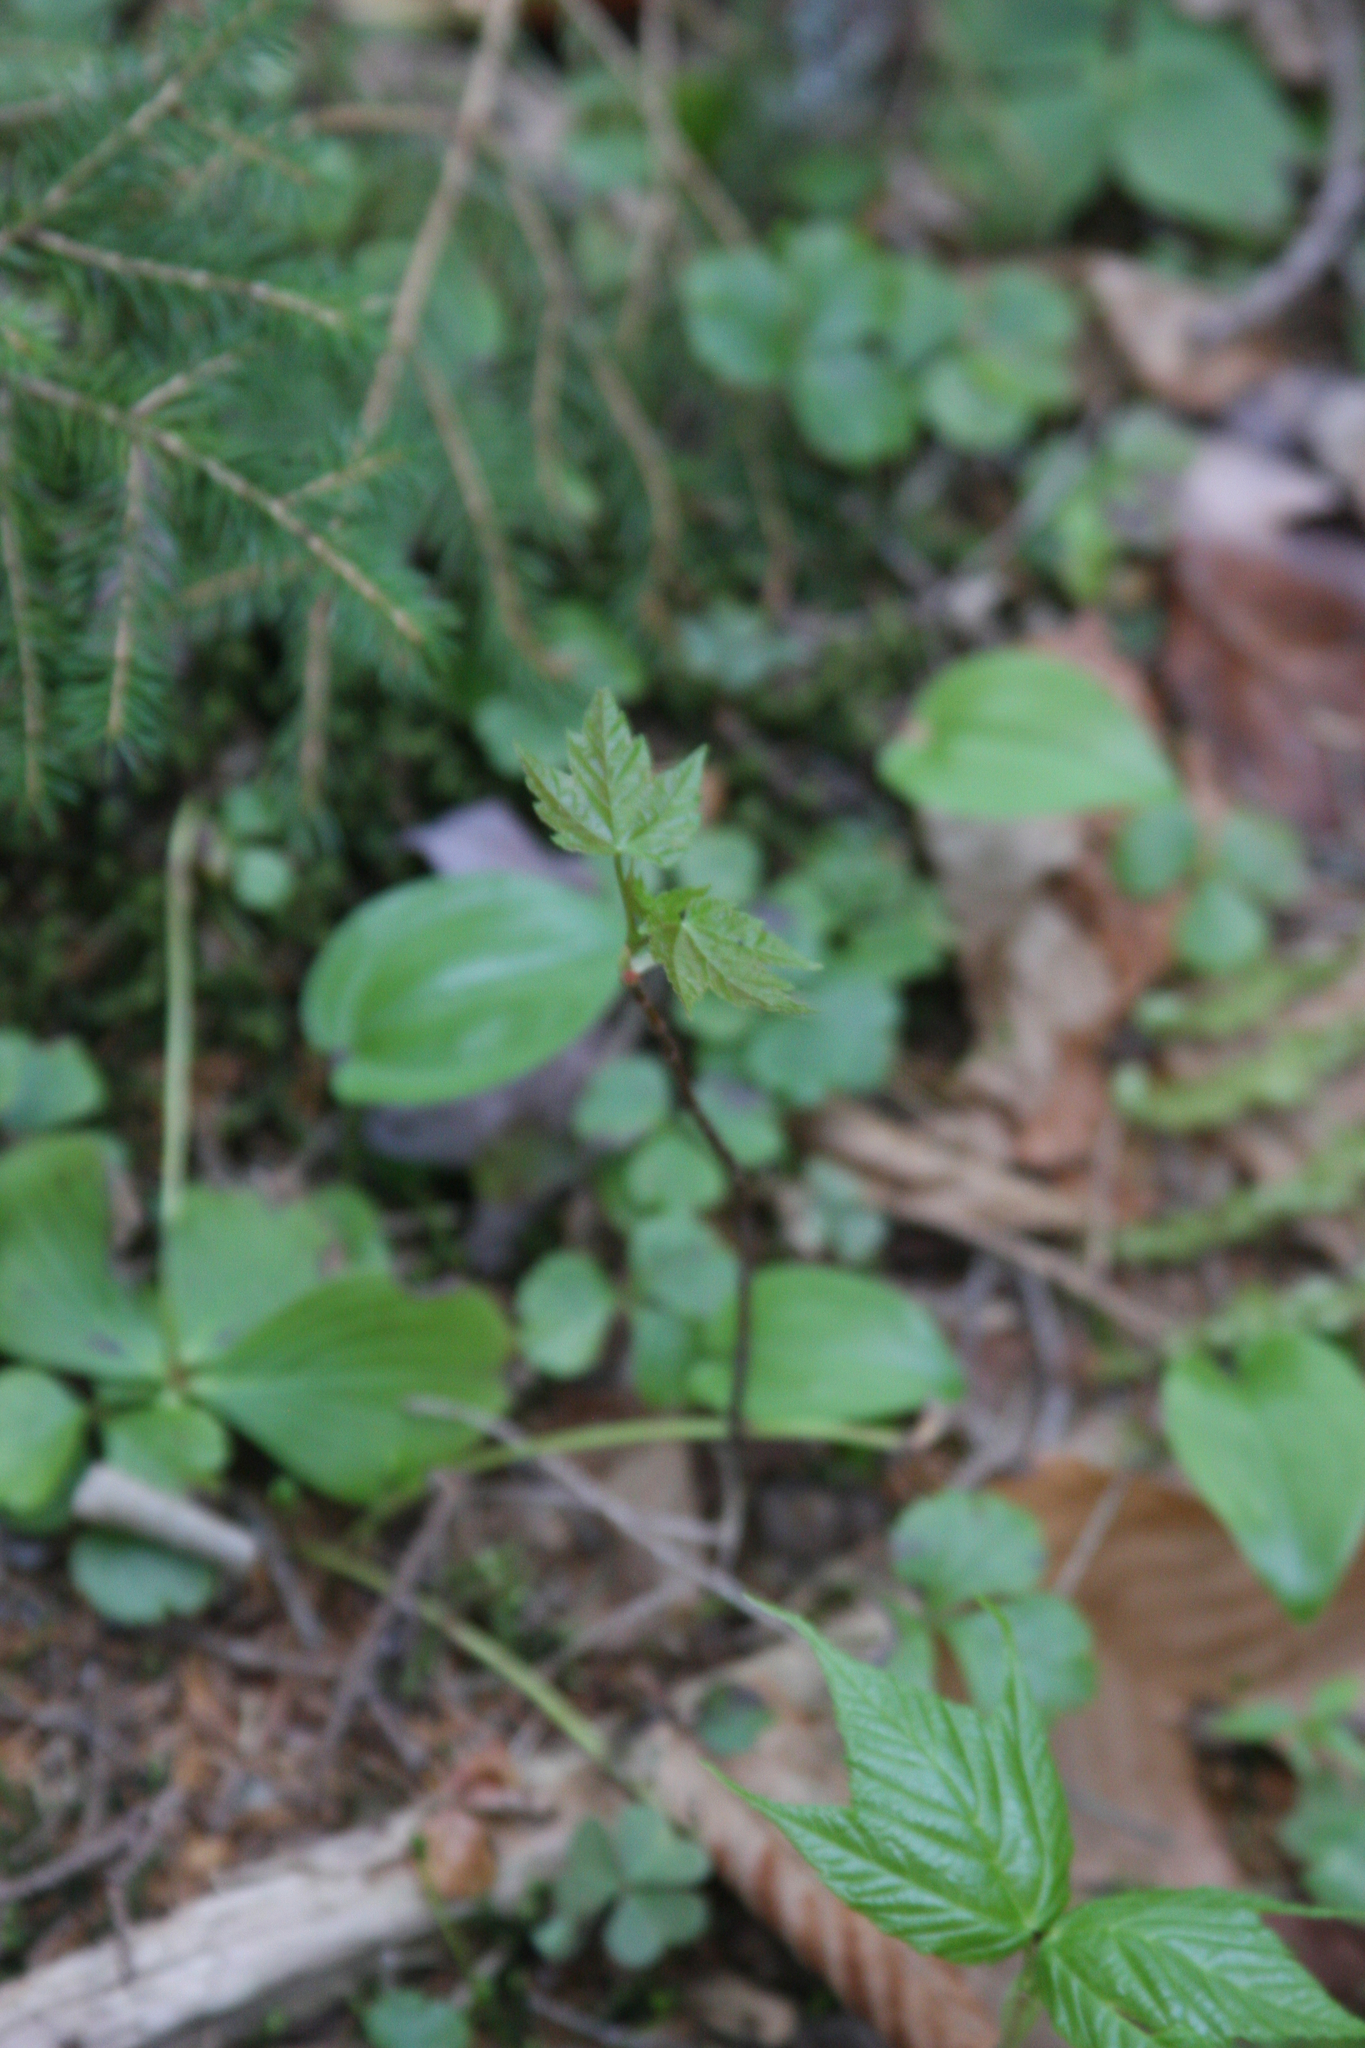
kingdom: Plantae
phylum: Tracheophyta
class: Magnoliopsida
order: Sapindales
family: Sapindaceae
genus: Acer
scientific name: Acer pensylvanicum
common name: Moosewood
